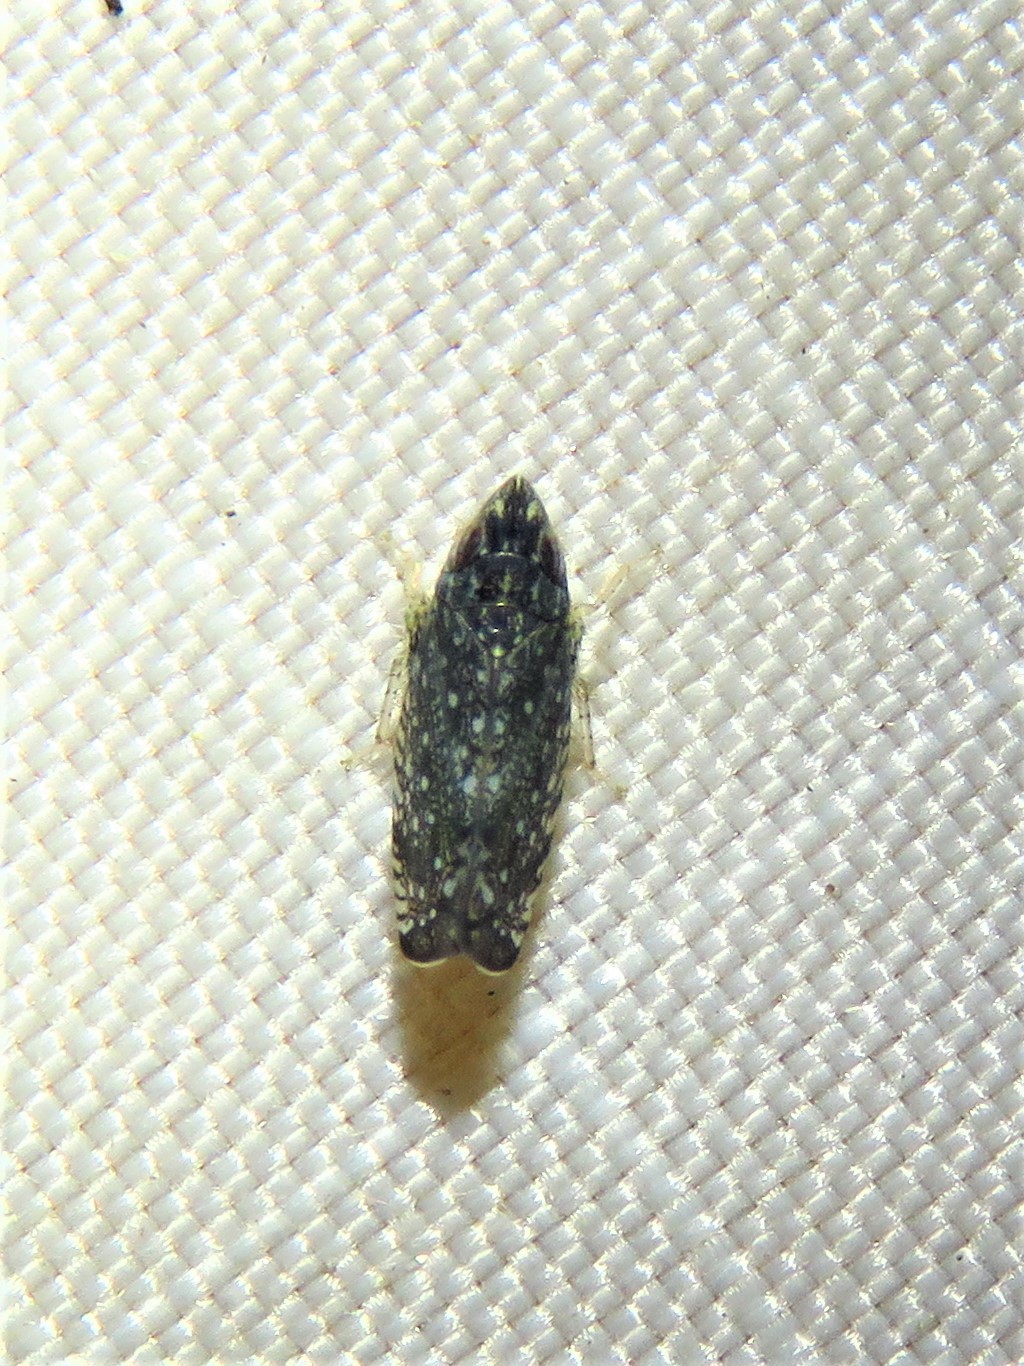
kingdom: Animalia
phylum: Arthropoda
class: Insecta
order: Hemiptera
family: Cicadellidae
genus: Scaphytopius
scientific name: Scaphytopius frontalis
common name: The yellow-faced leafhopper
